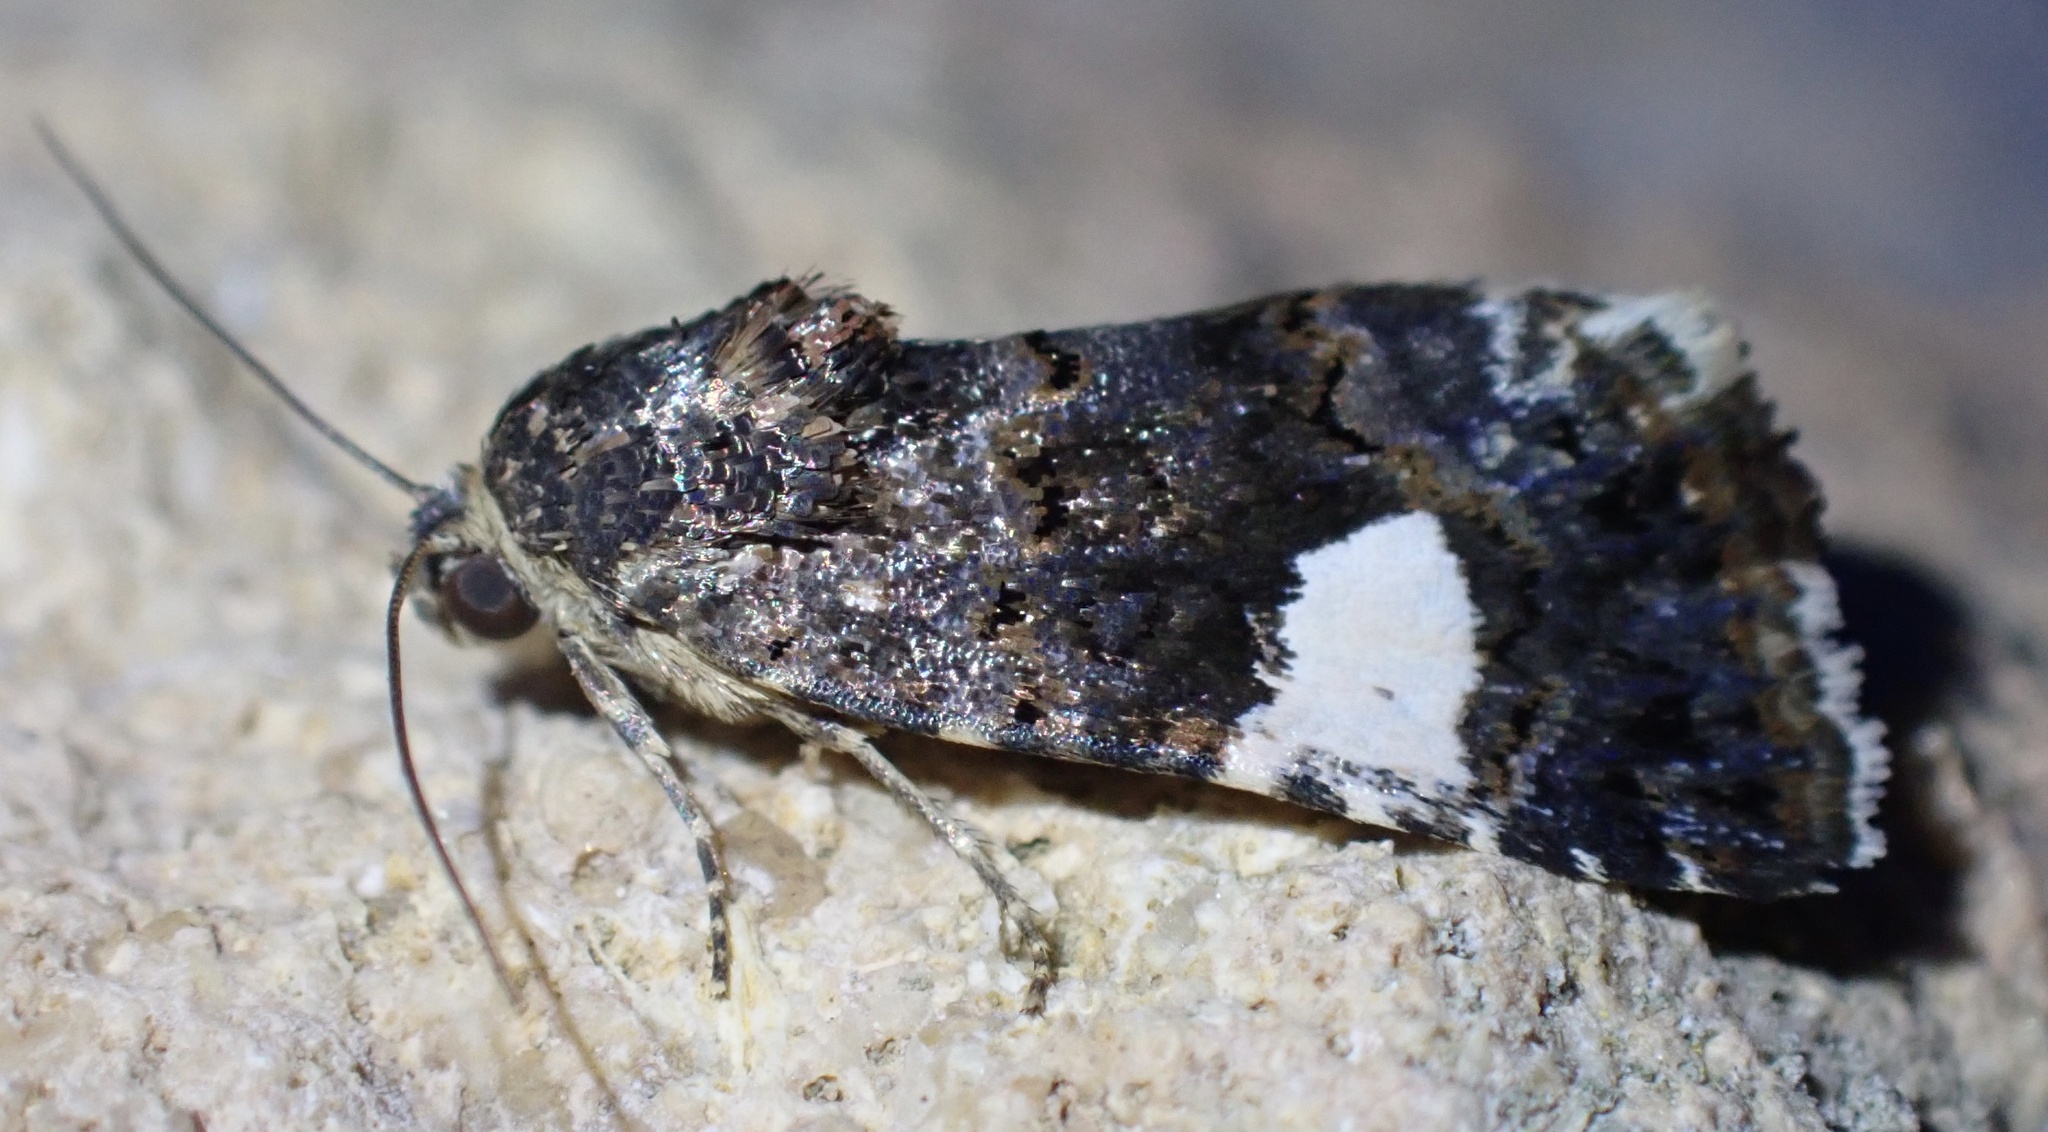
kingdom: Animalia
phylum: Arthropoda
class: Insecta
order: Lepidoptera
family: Erebidae
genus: Tyta
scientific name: Tyta luctuosa
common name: Four-spotted
